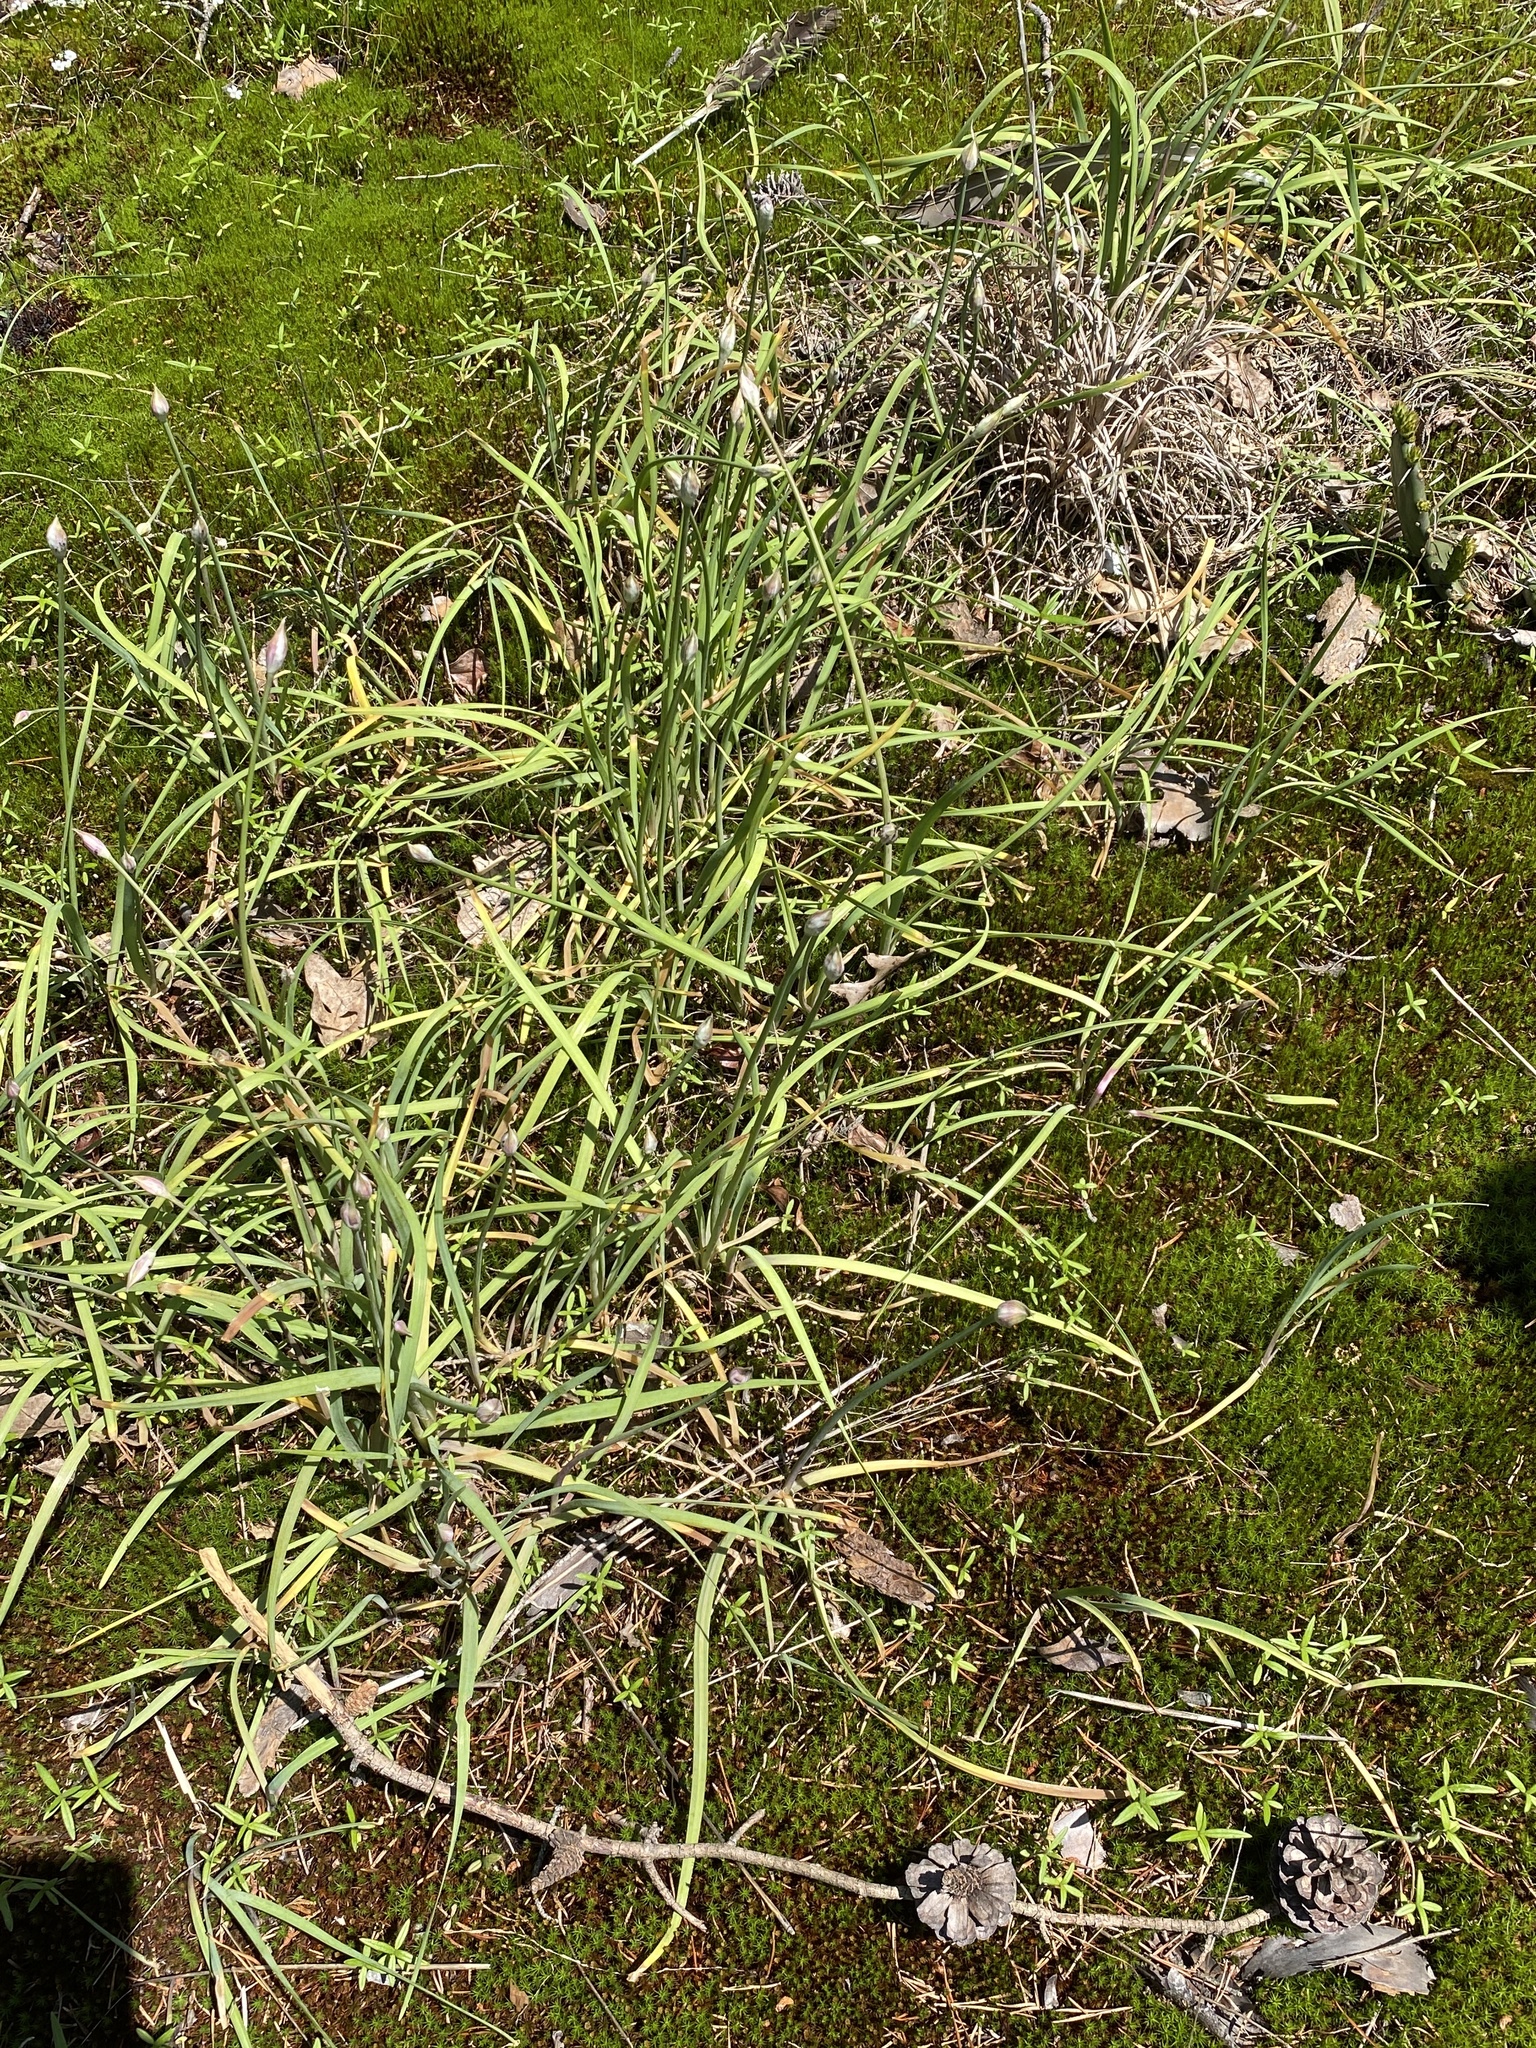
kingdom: Plantae
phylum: Tracheophyta
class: Liliopsida
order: Asparagales
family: Amaryllidaceae
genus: Allium
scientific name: Allium keeverae
